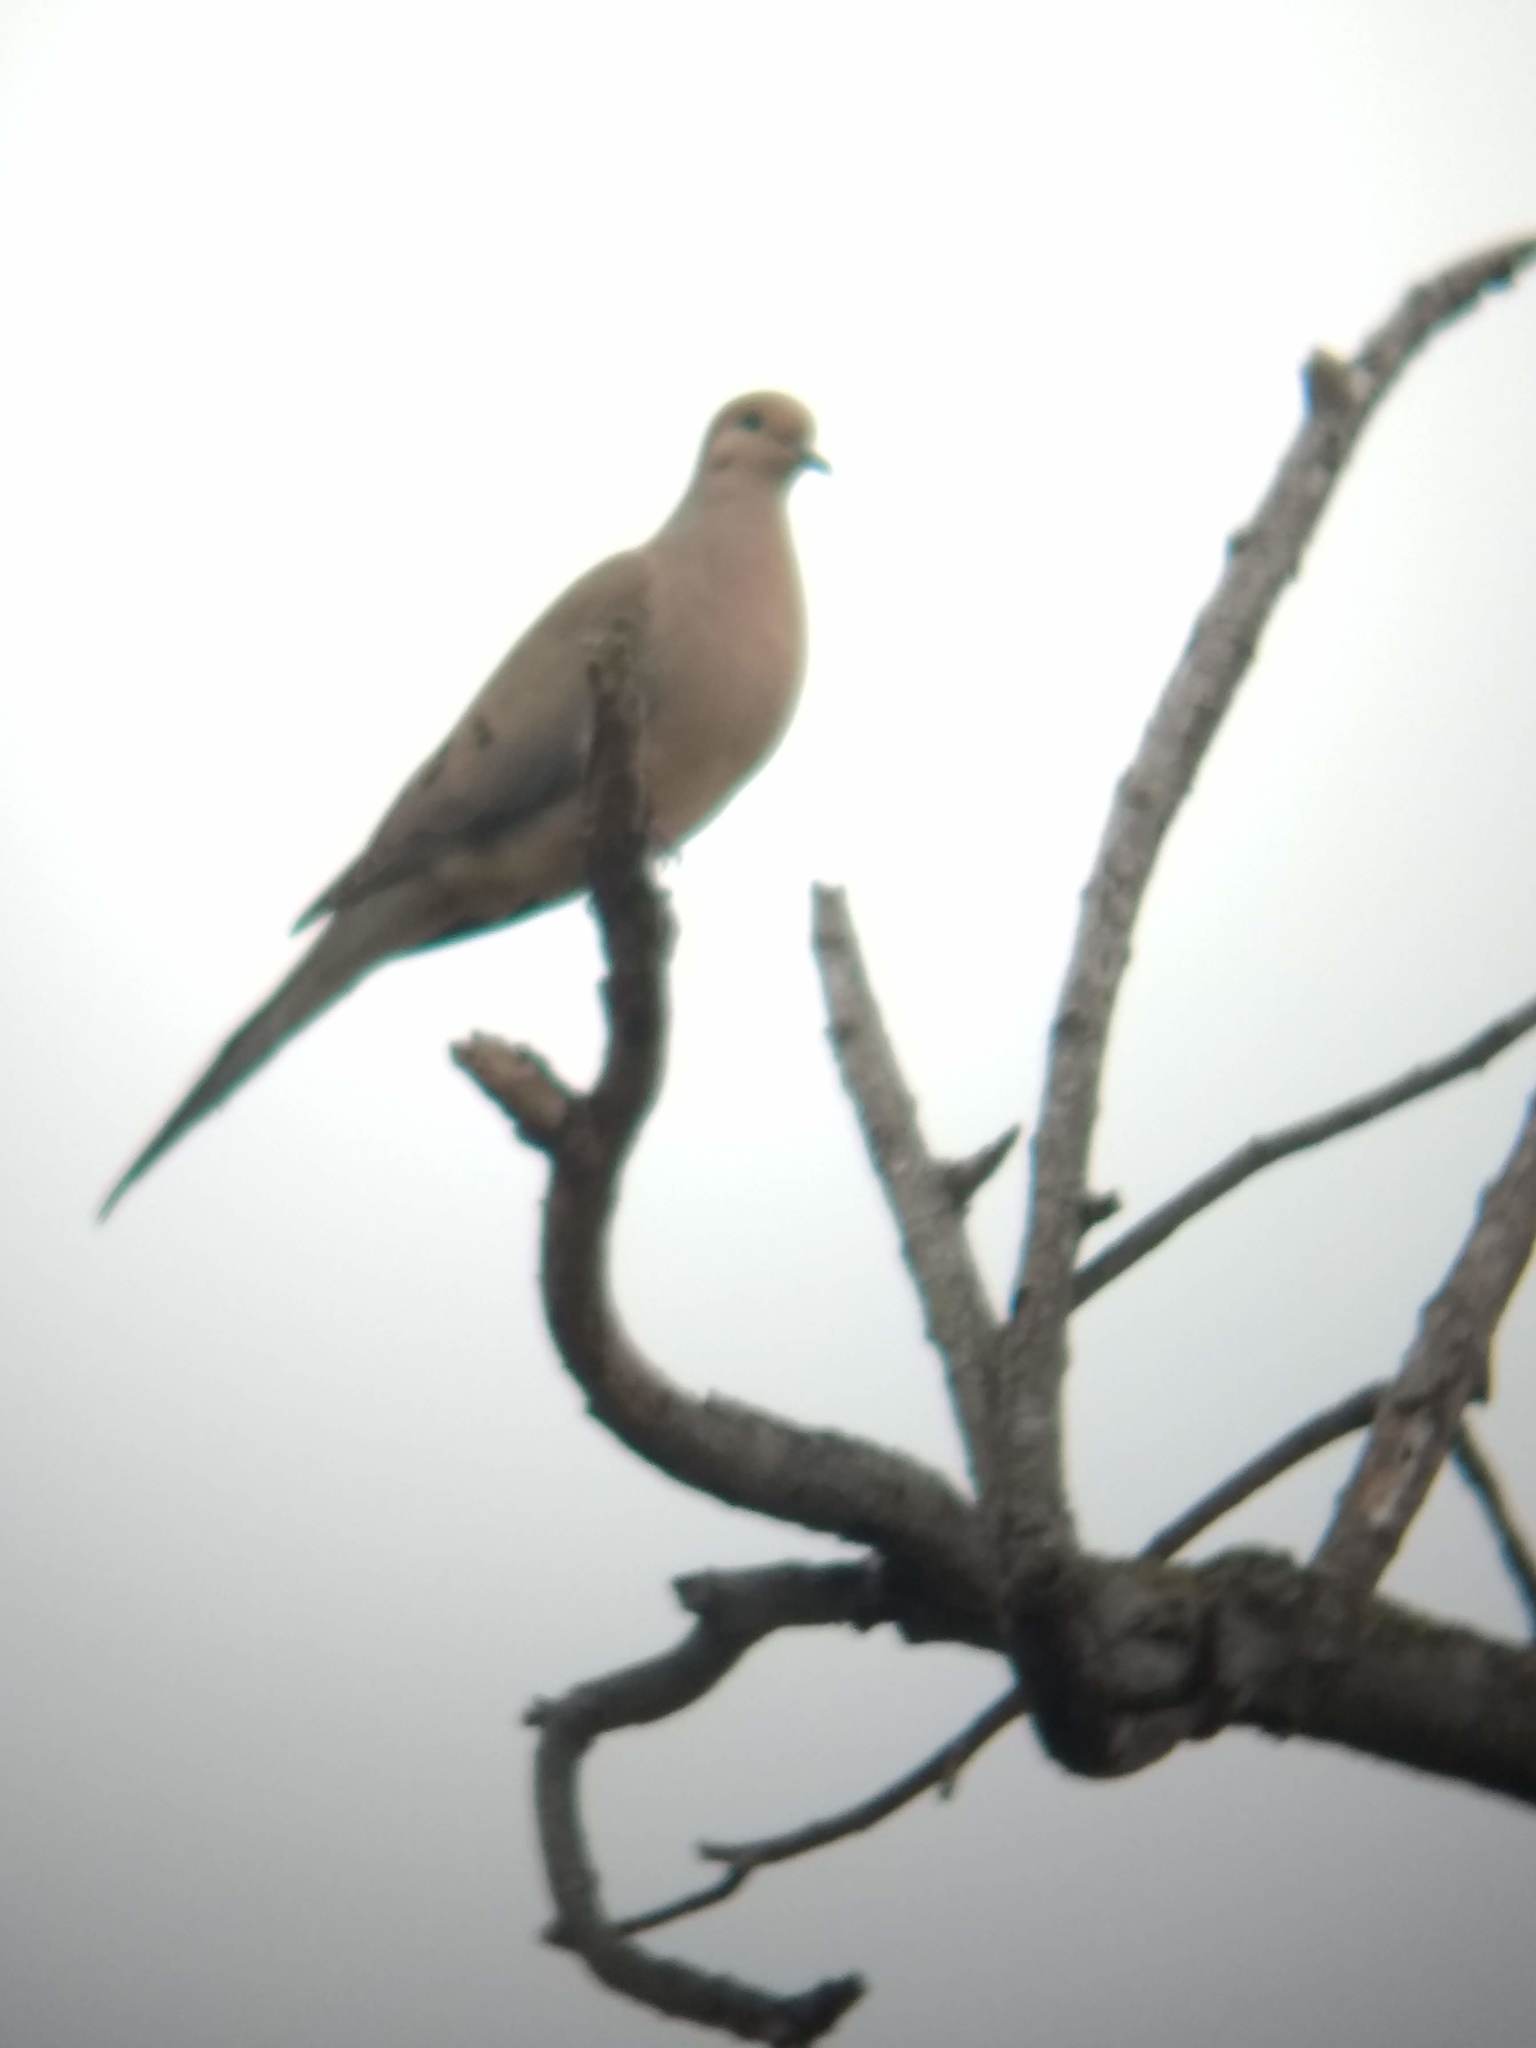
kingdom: Animalia
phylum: Chordata
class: Aves
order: Columbiformes
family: Columbidae
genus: Zenaida
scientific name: Zenaida macroura
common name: Mourning dove
